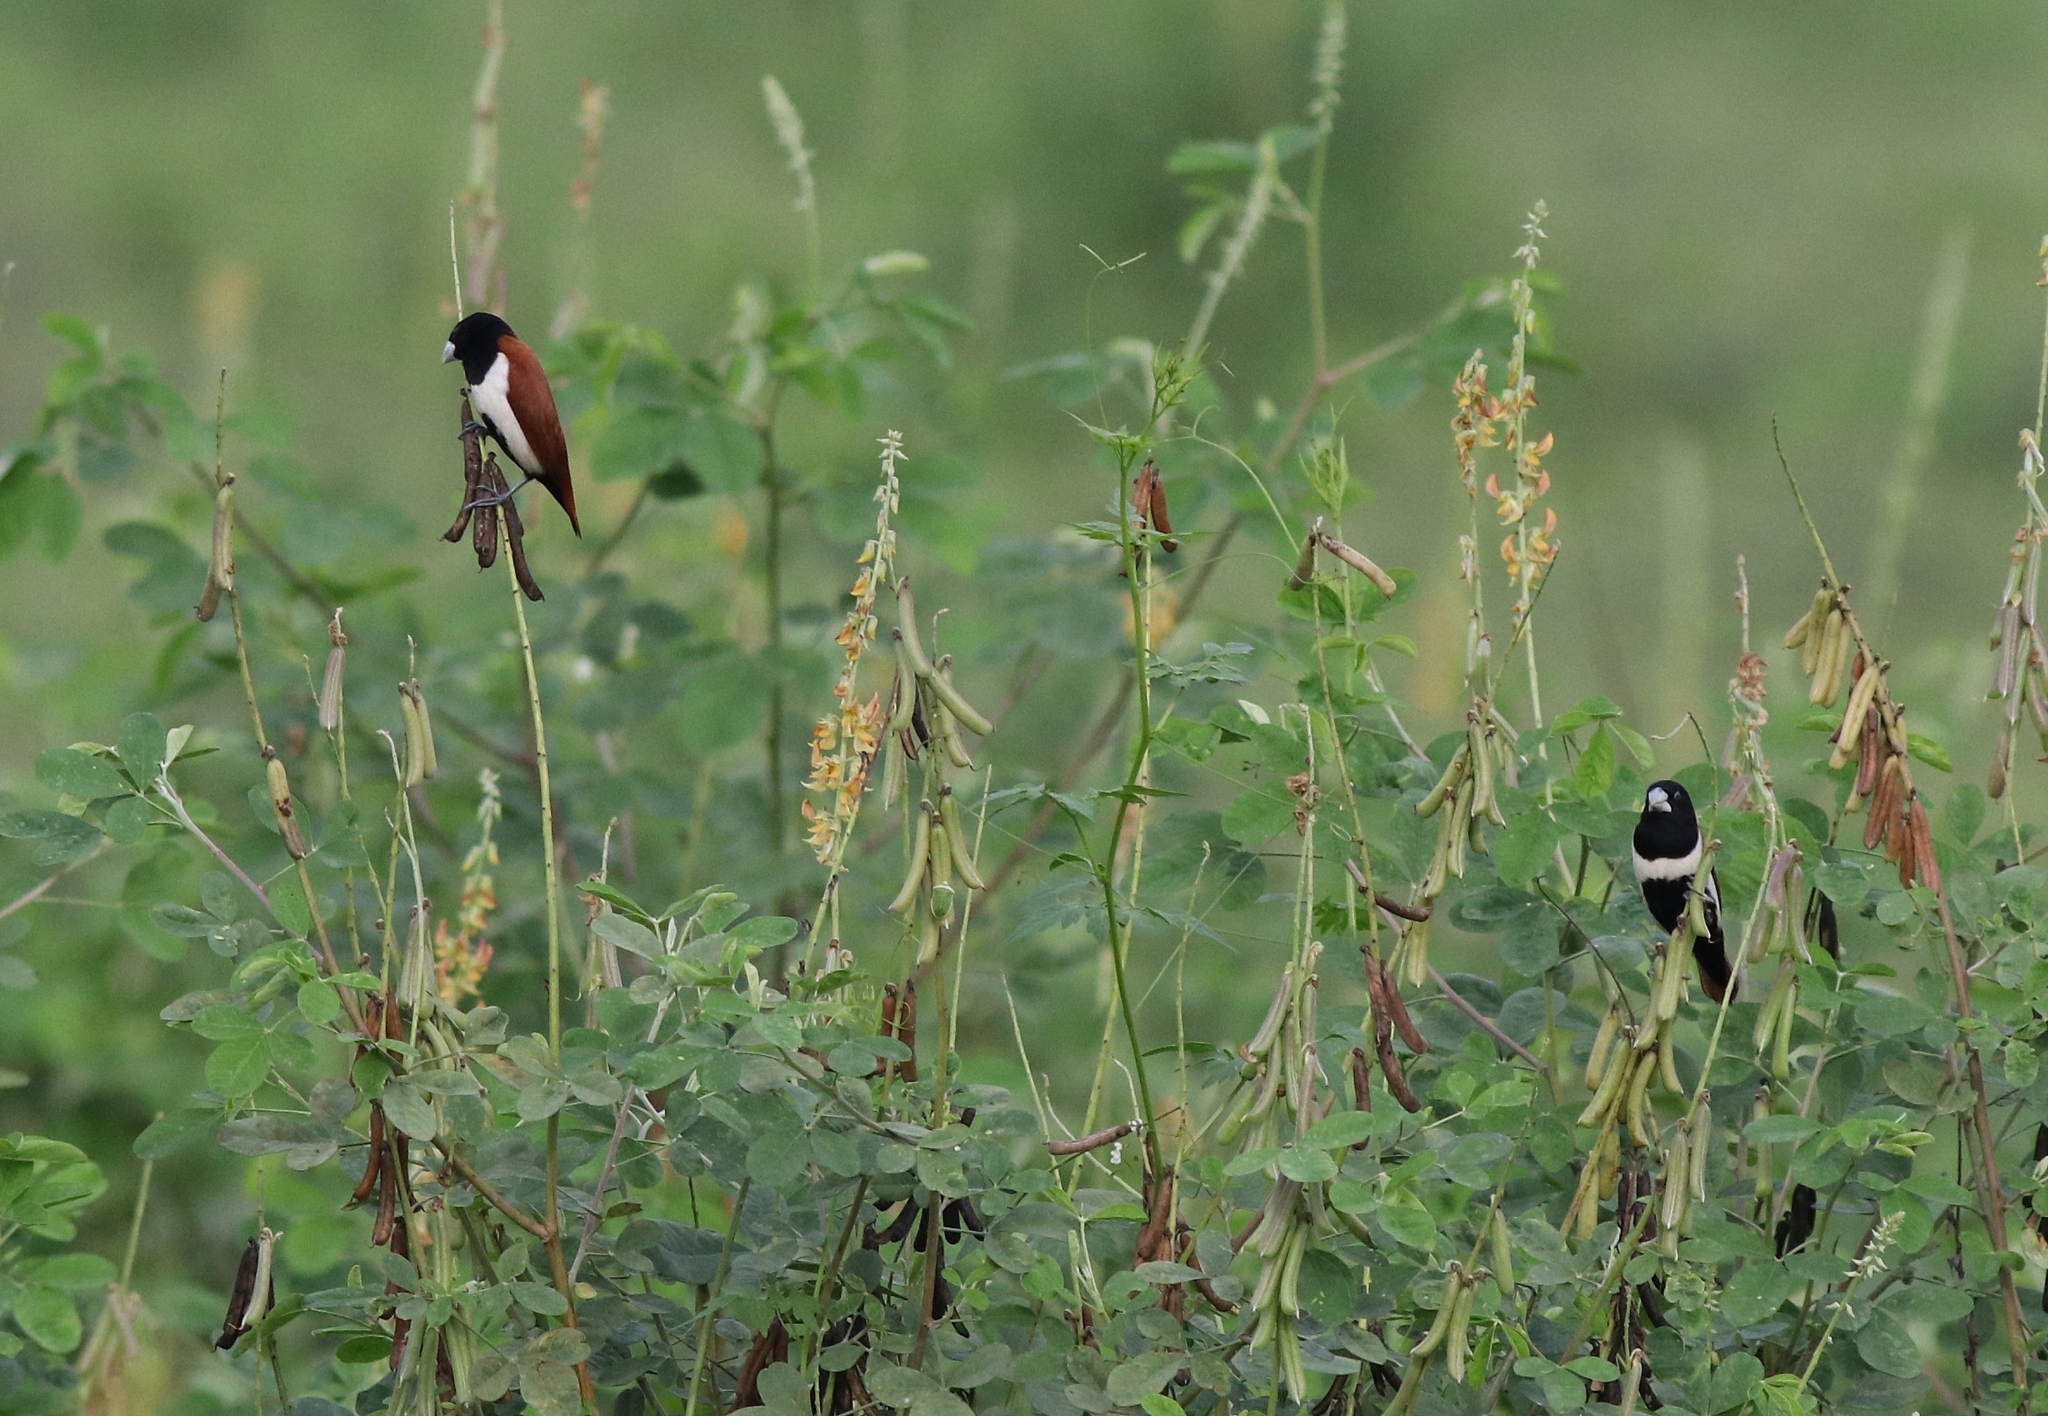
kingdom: Animalia
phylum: Chordata
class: Aves
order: Passeriformes
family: Estrildidae
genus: Lonchura
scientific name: Lonchura malacca
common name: Tricolored munia
